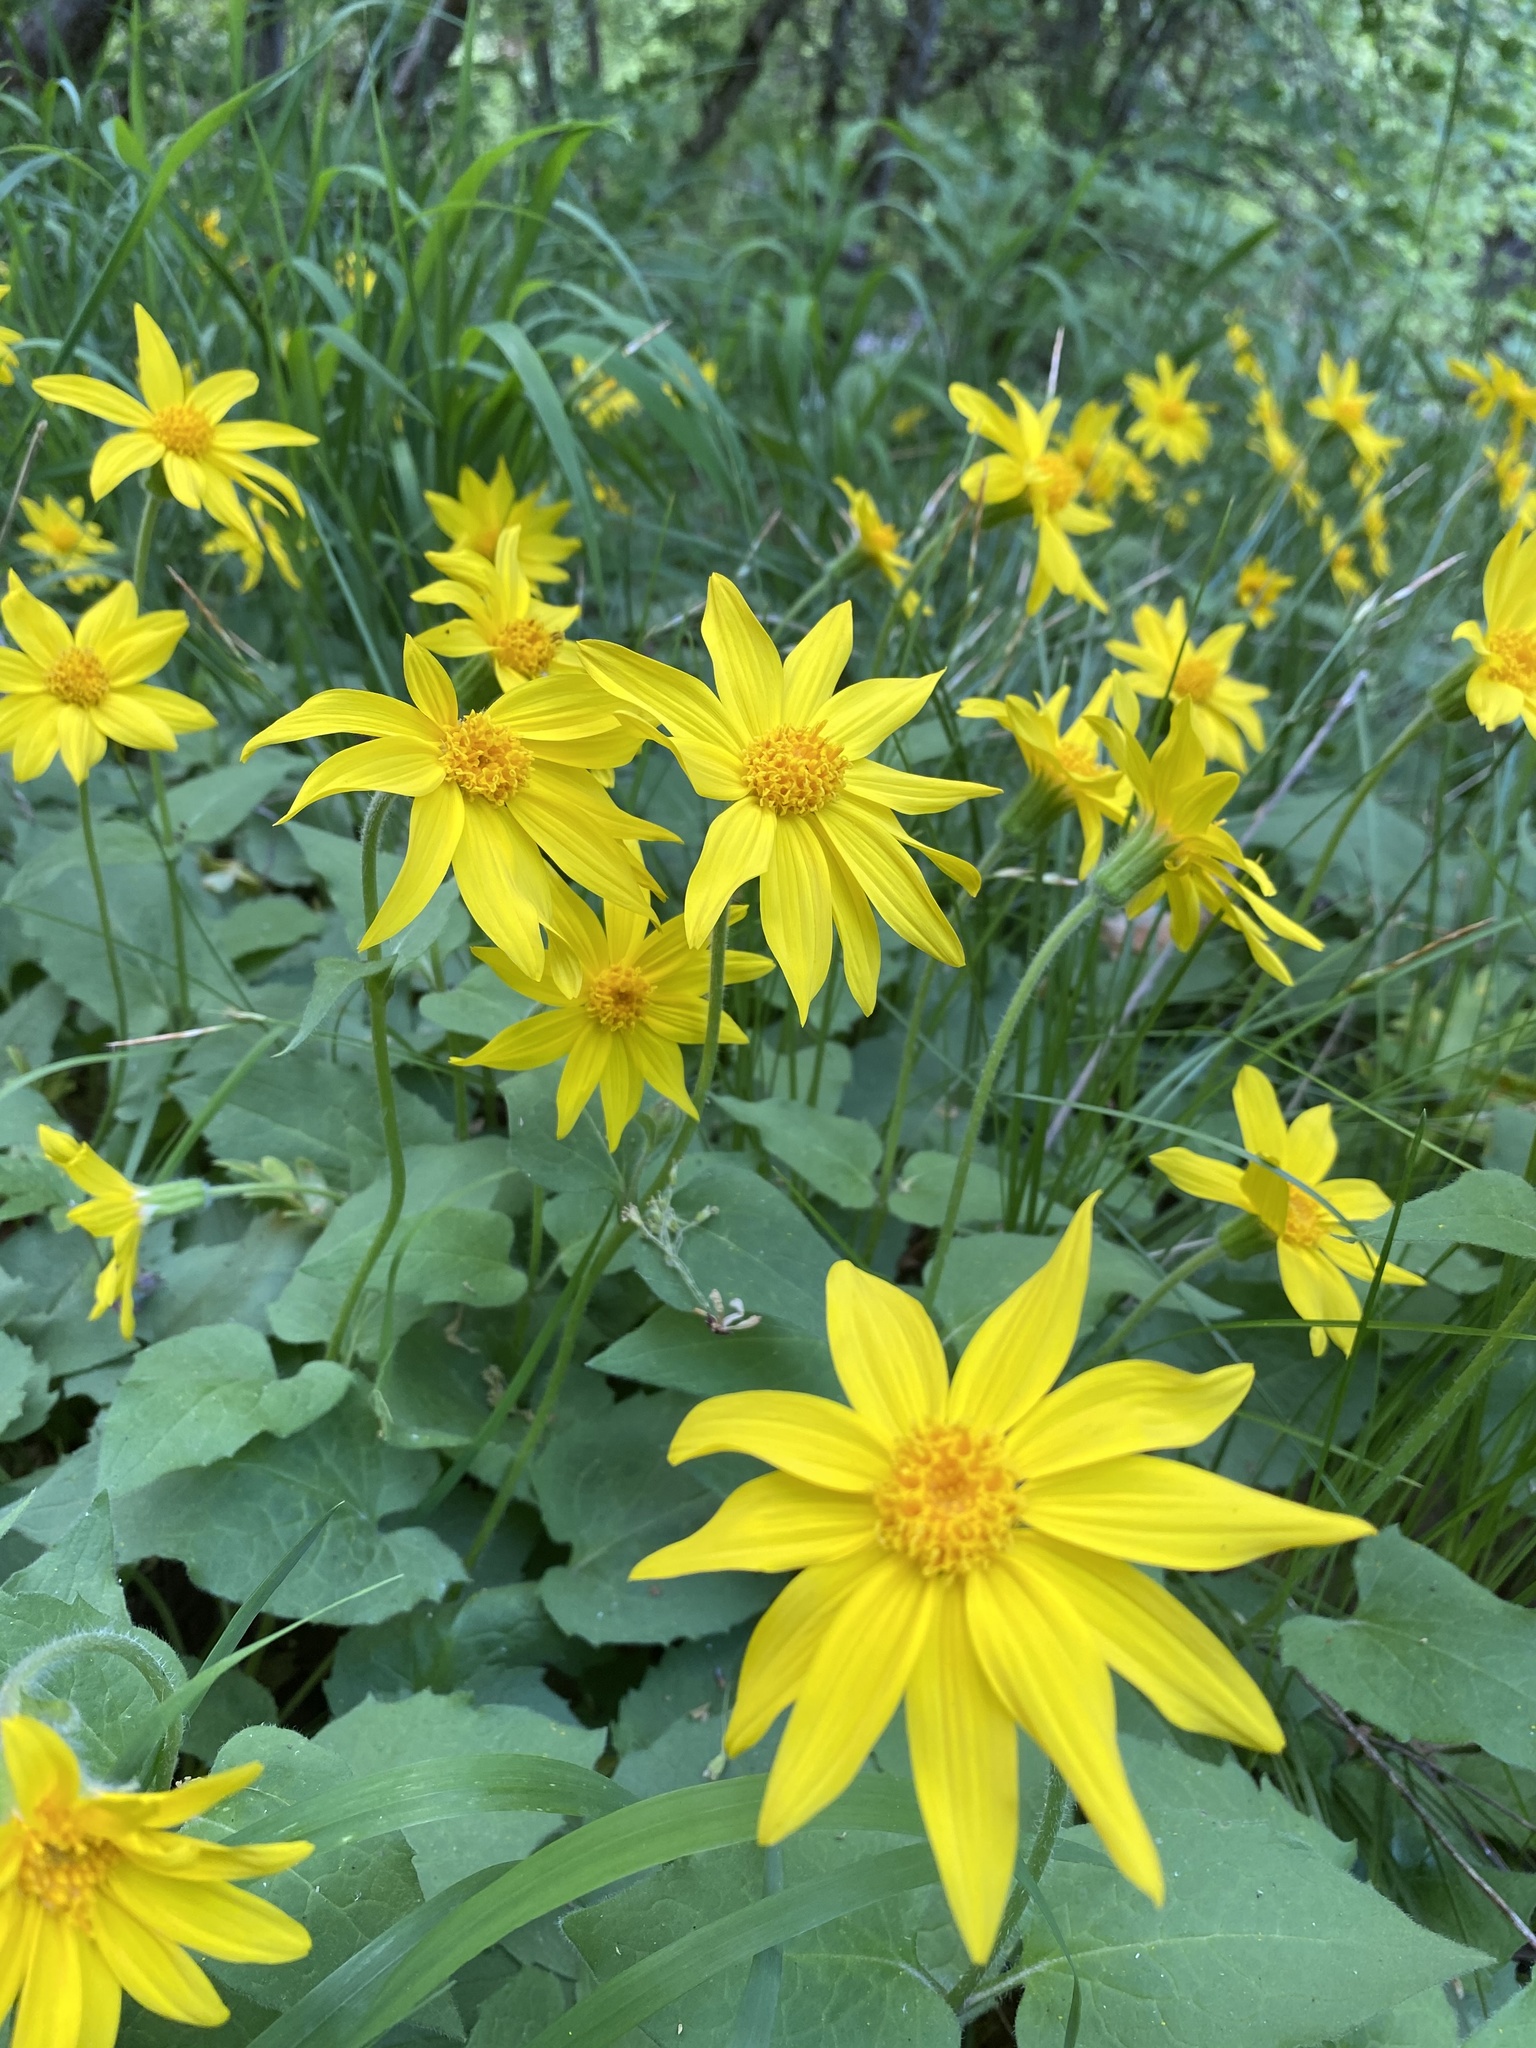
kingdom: Plantae
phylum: Tracheophyta
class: Magnoliopsida
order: Asterales
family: Asteraceae
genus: Arnica
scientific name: Arnica cordifolia
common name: Heart-leaf arnica
